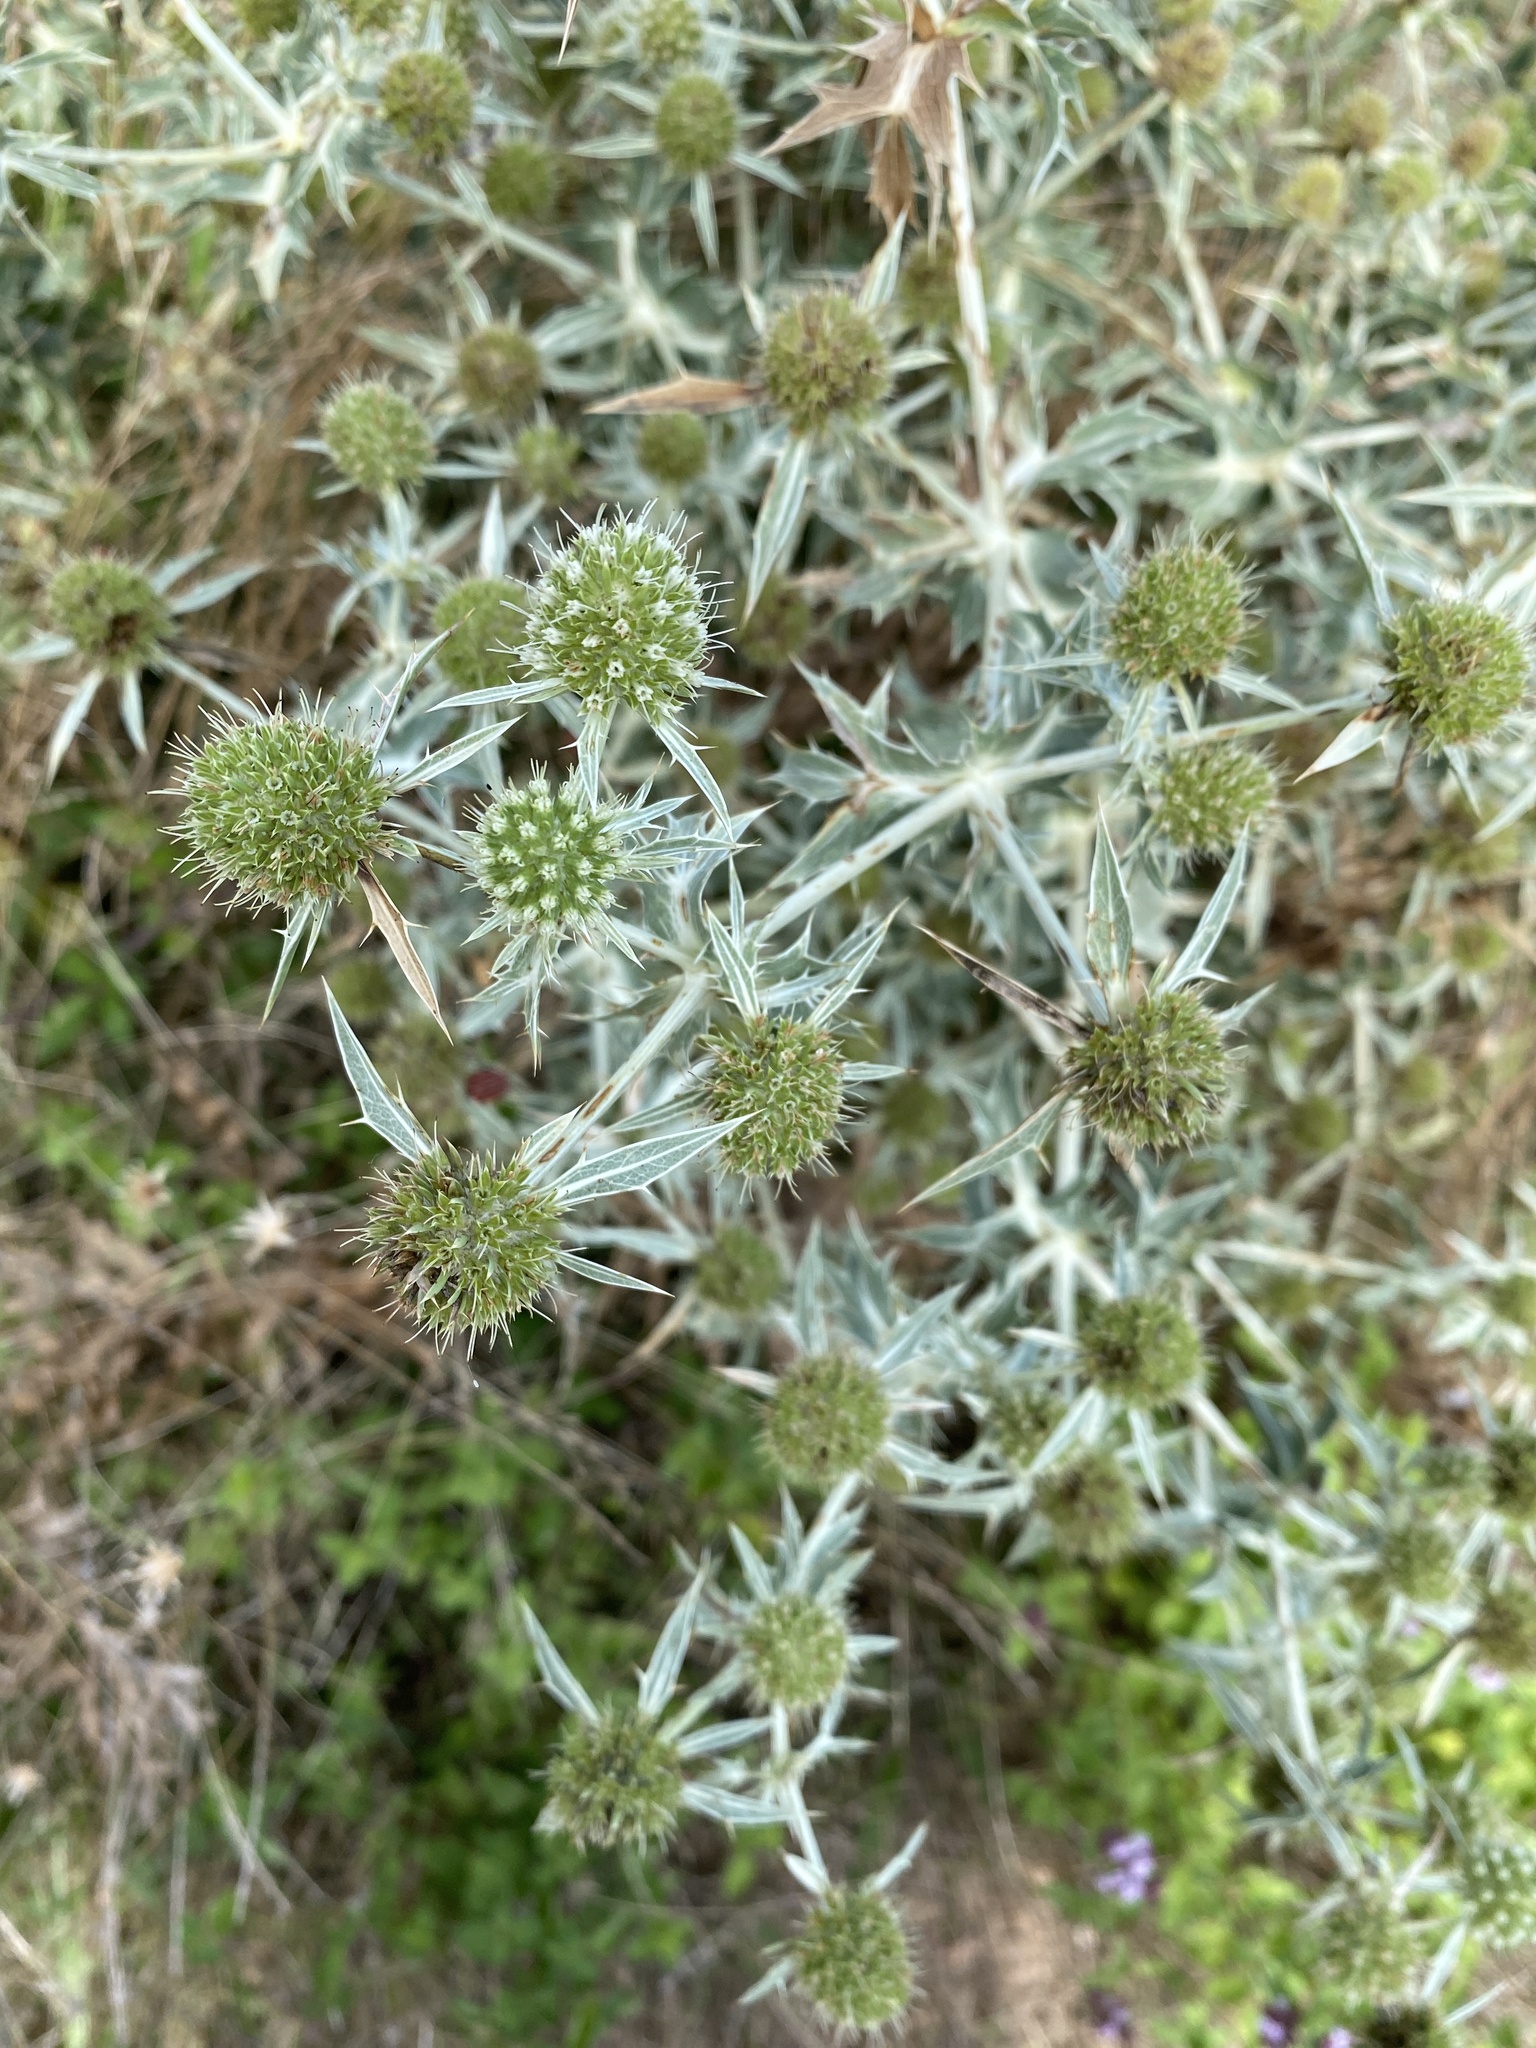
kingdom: Plantae
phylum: Tracheophyta
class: Magnoliopsida
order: Apiales
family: Apiaceae
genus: Eryngium
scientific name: Eryngium campestre
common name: Field eryngo
